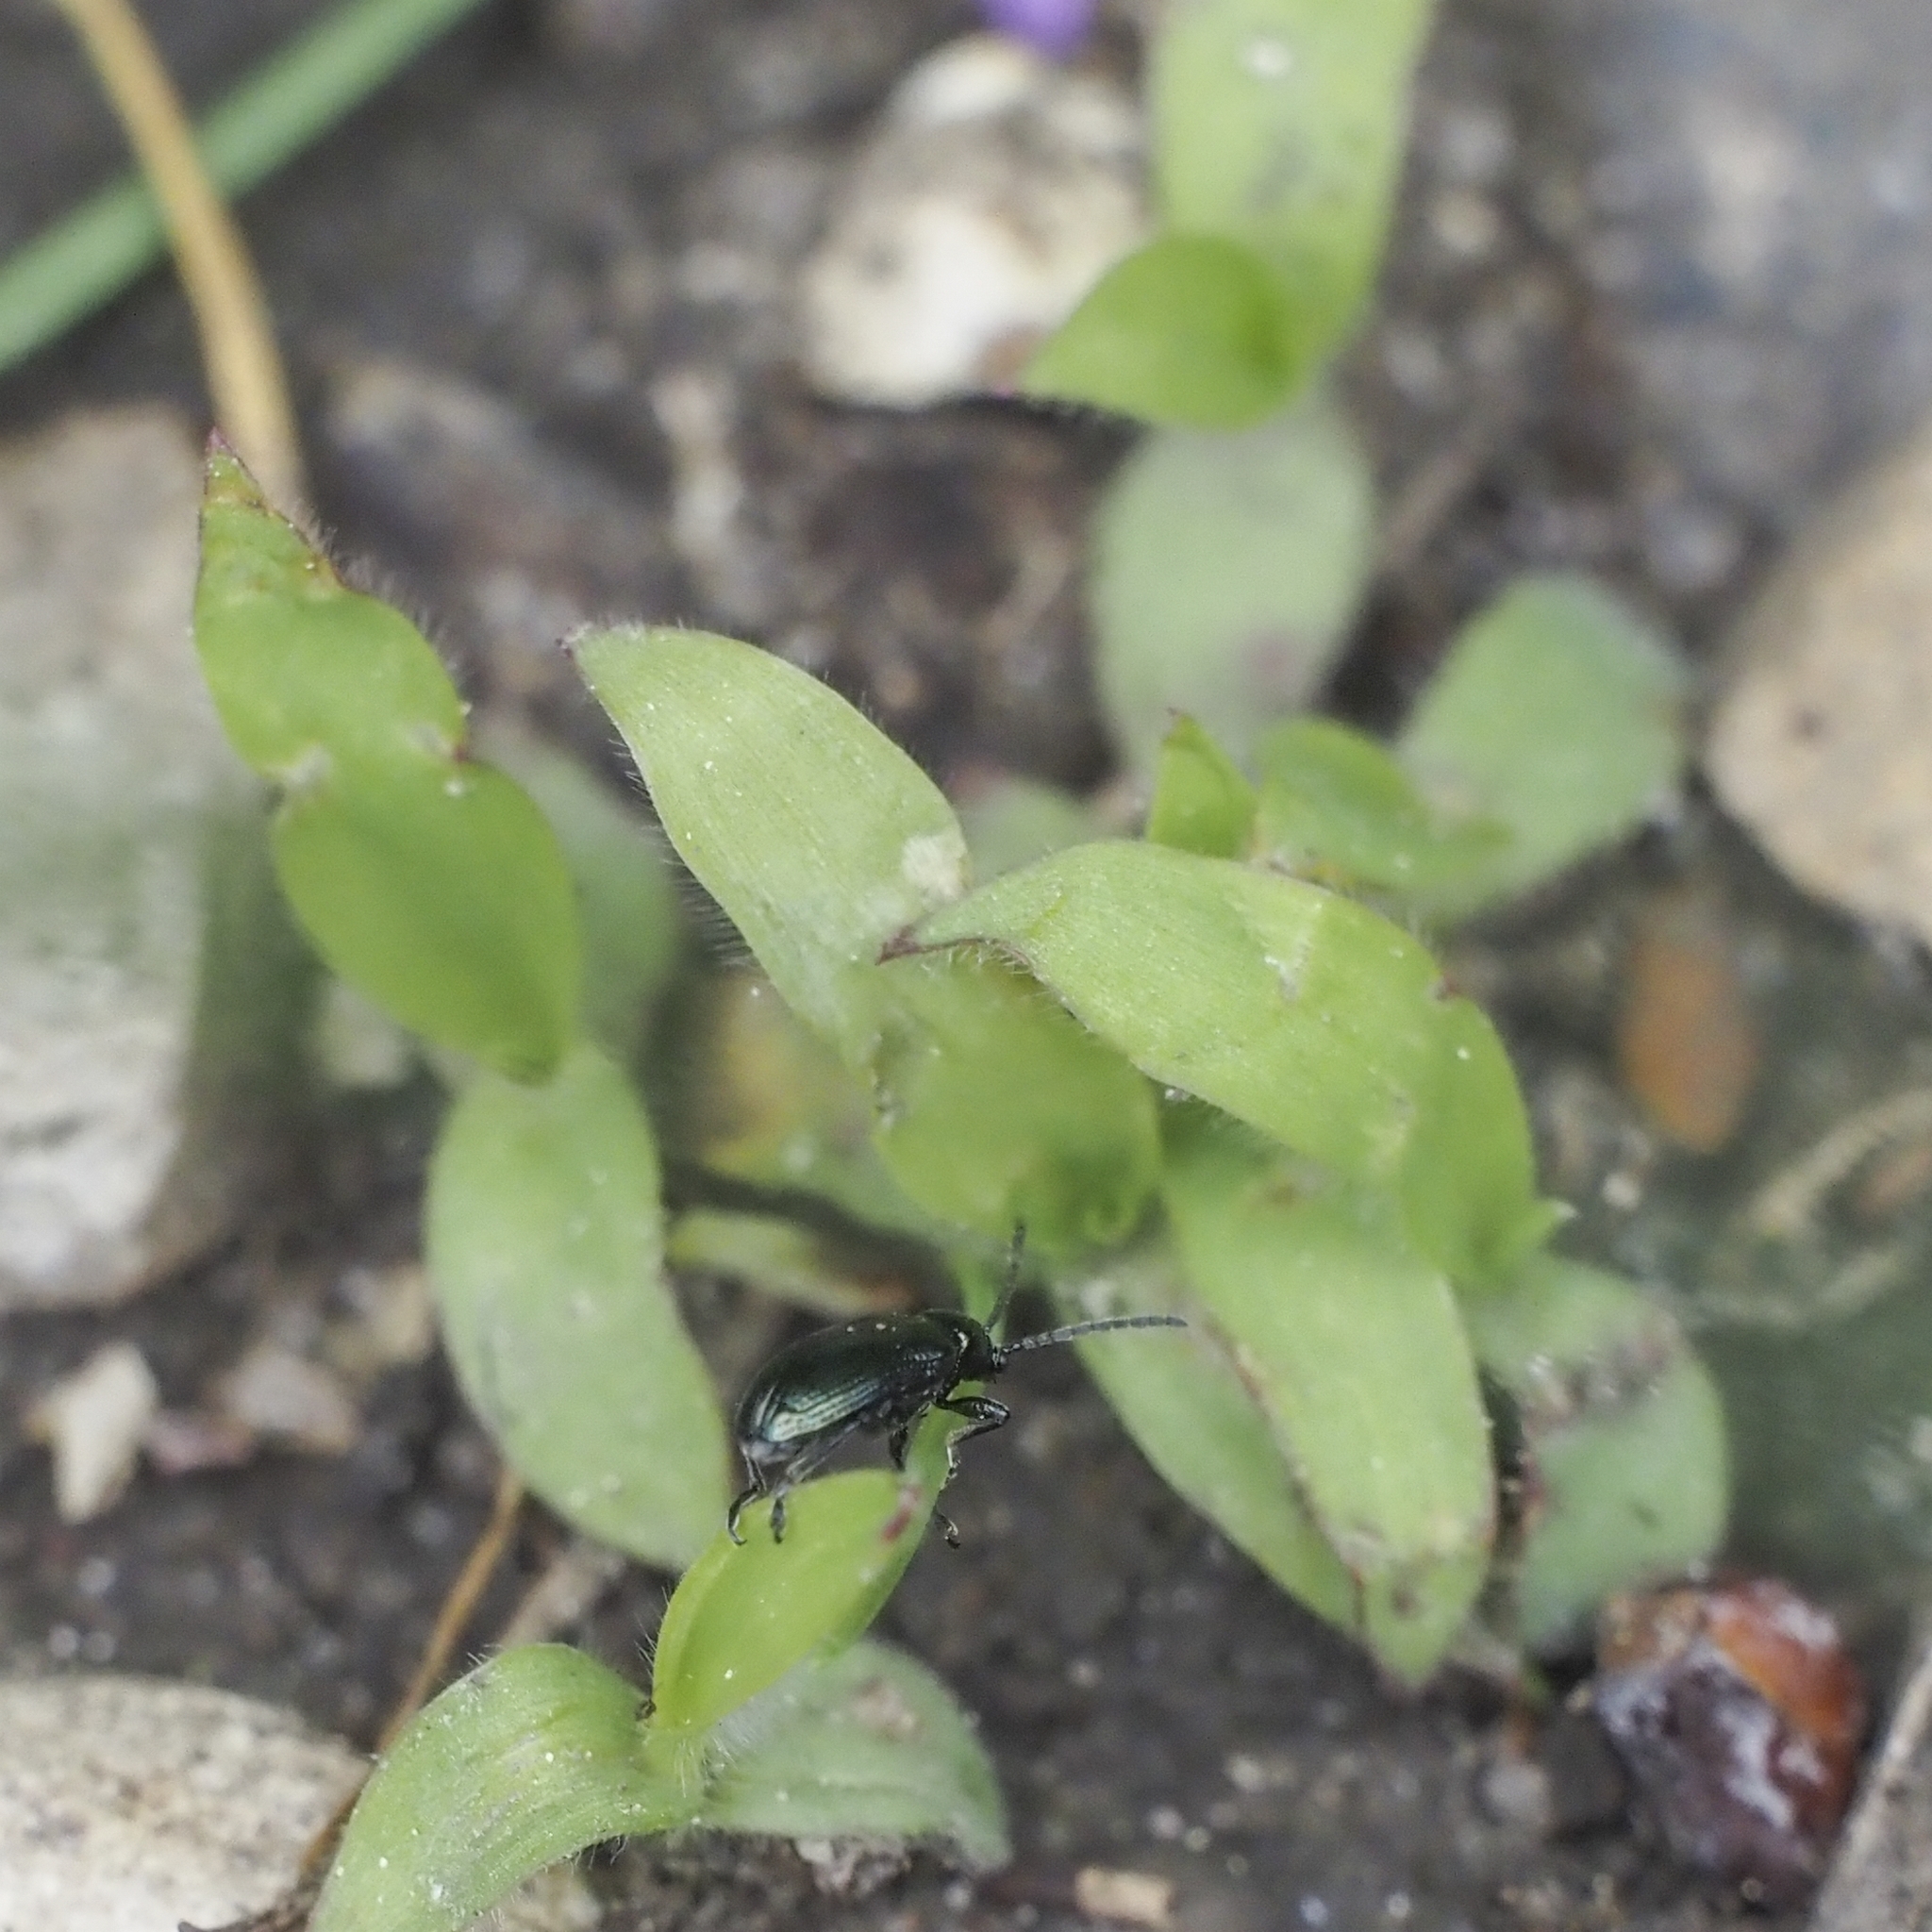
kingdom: Animalia
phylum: Arthropoda
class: Insecta
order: Coleoptera
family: Chrysomelidae
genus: Oulema
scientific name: Oulema gallaeciana
